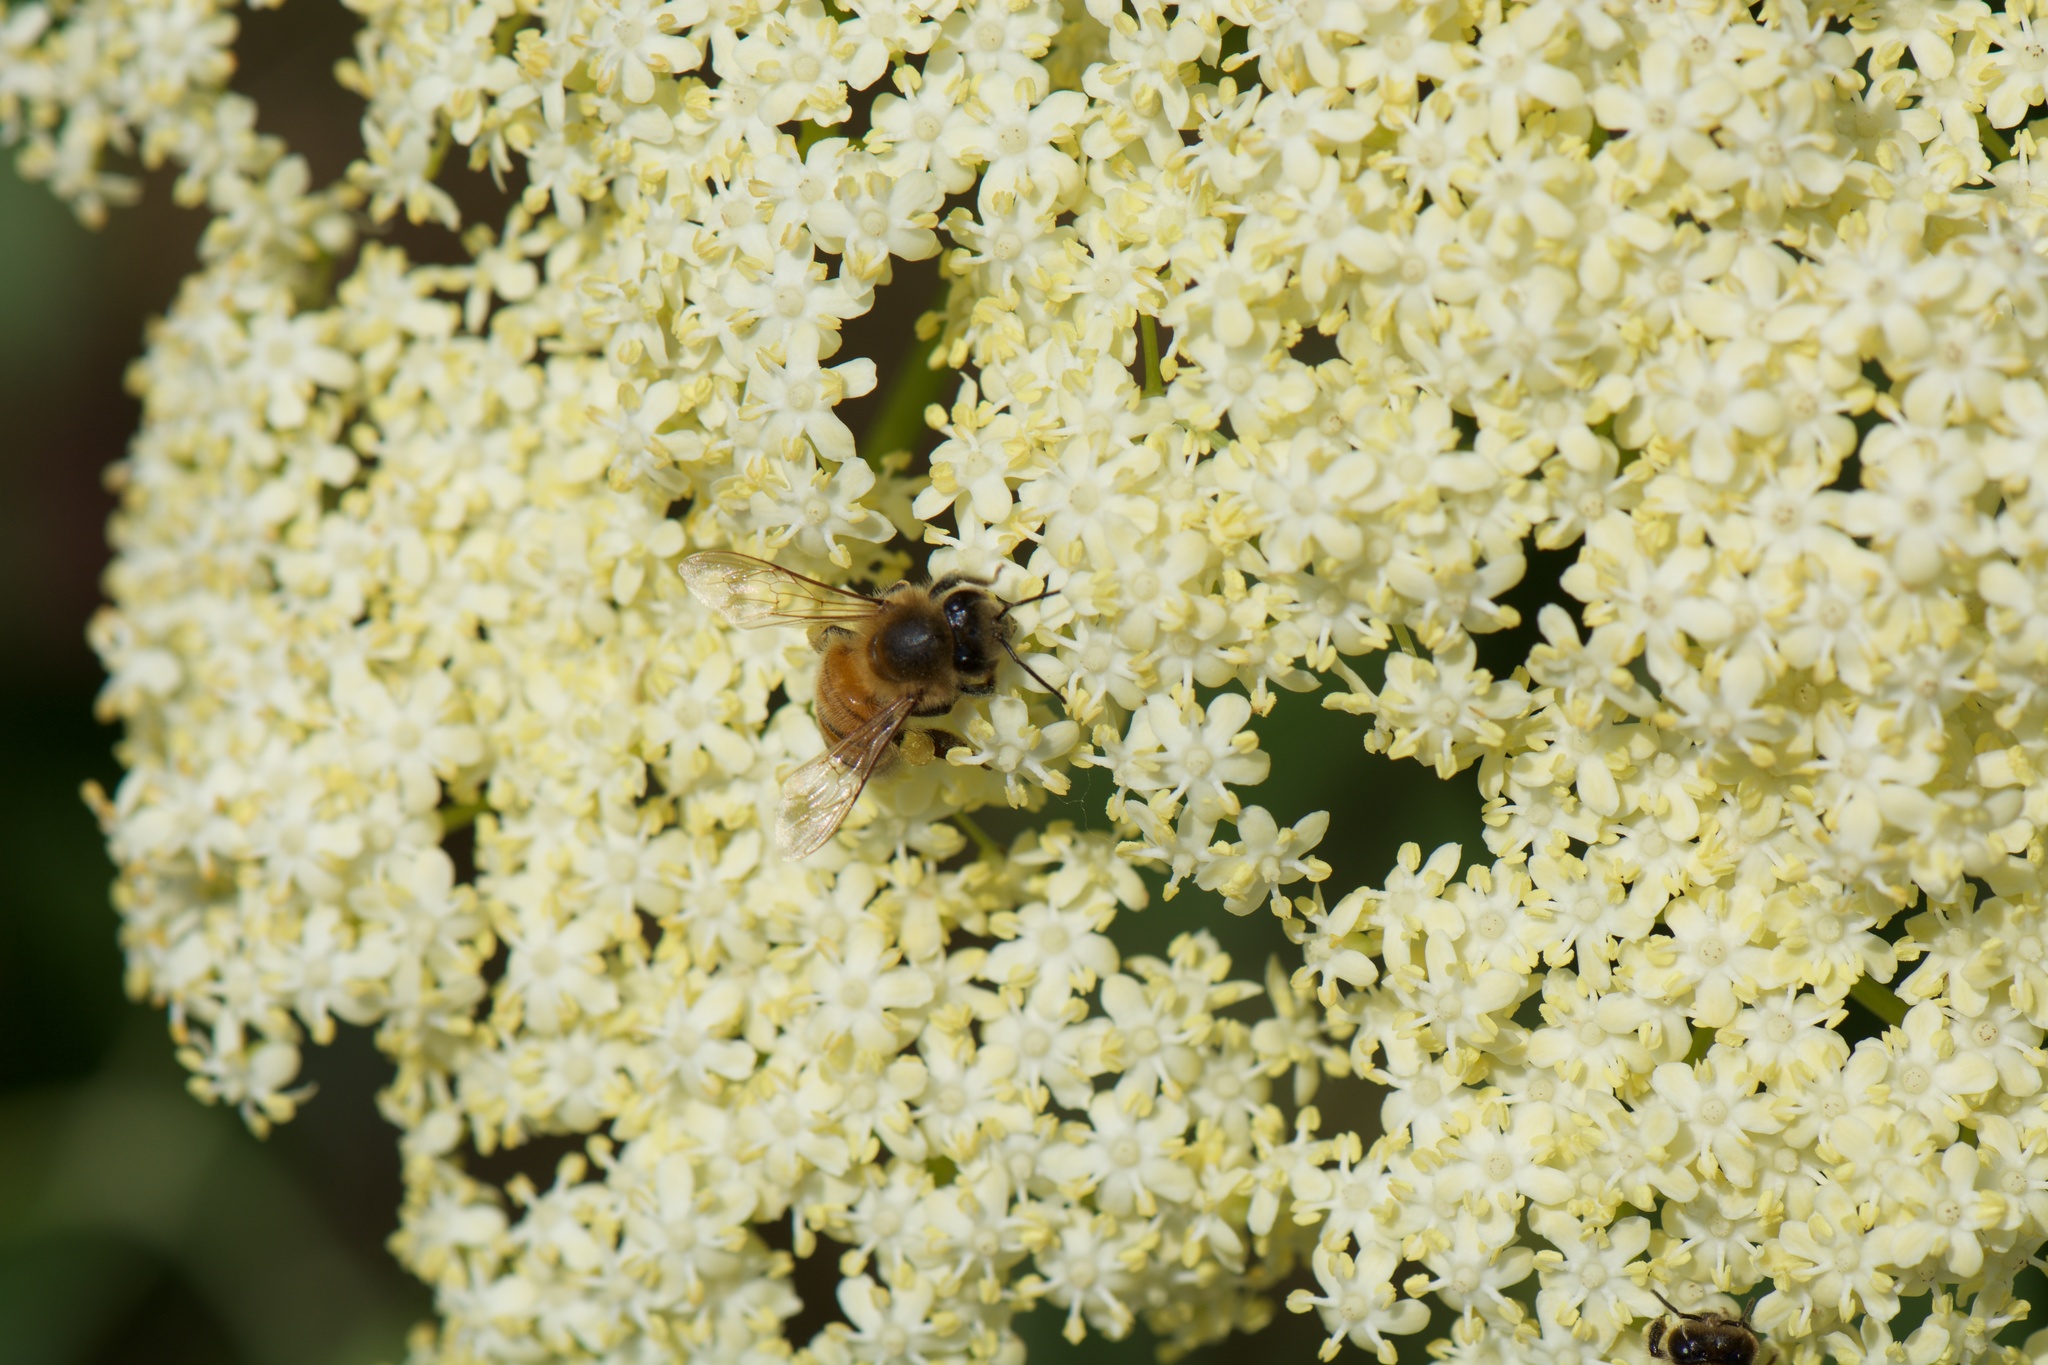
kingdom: Animalia
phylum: Arthropoda
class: Insecta
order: Hymenoptera
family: Apidae
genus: Apis
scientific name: Apis mellifera
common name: Honey bee
